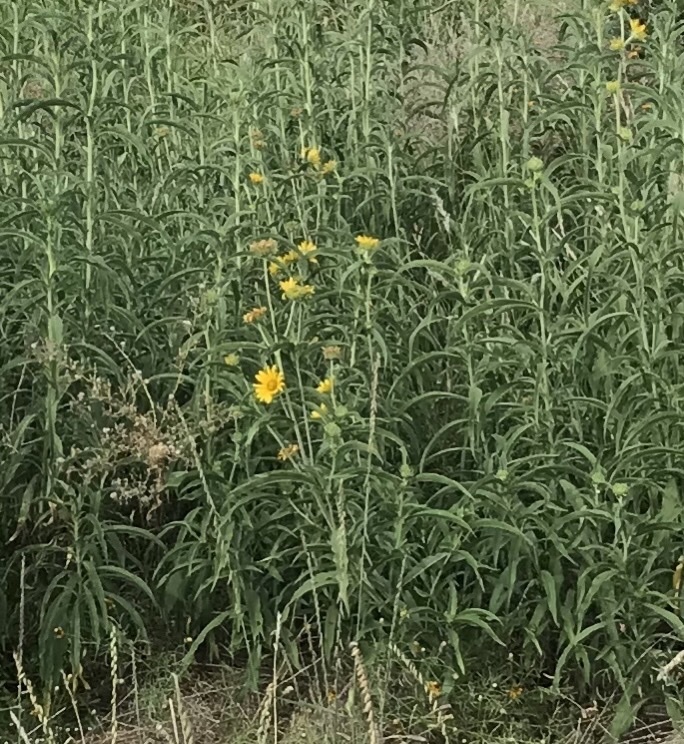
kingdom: Plantae
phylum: Tracheophyta
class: Magnoliopsida
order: Asterales
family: Asteraceae
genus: Helianthus
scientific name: Helianthus maximiliani
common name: Maximilian's sunflower
